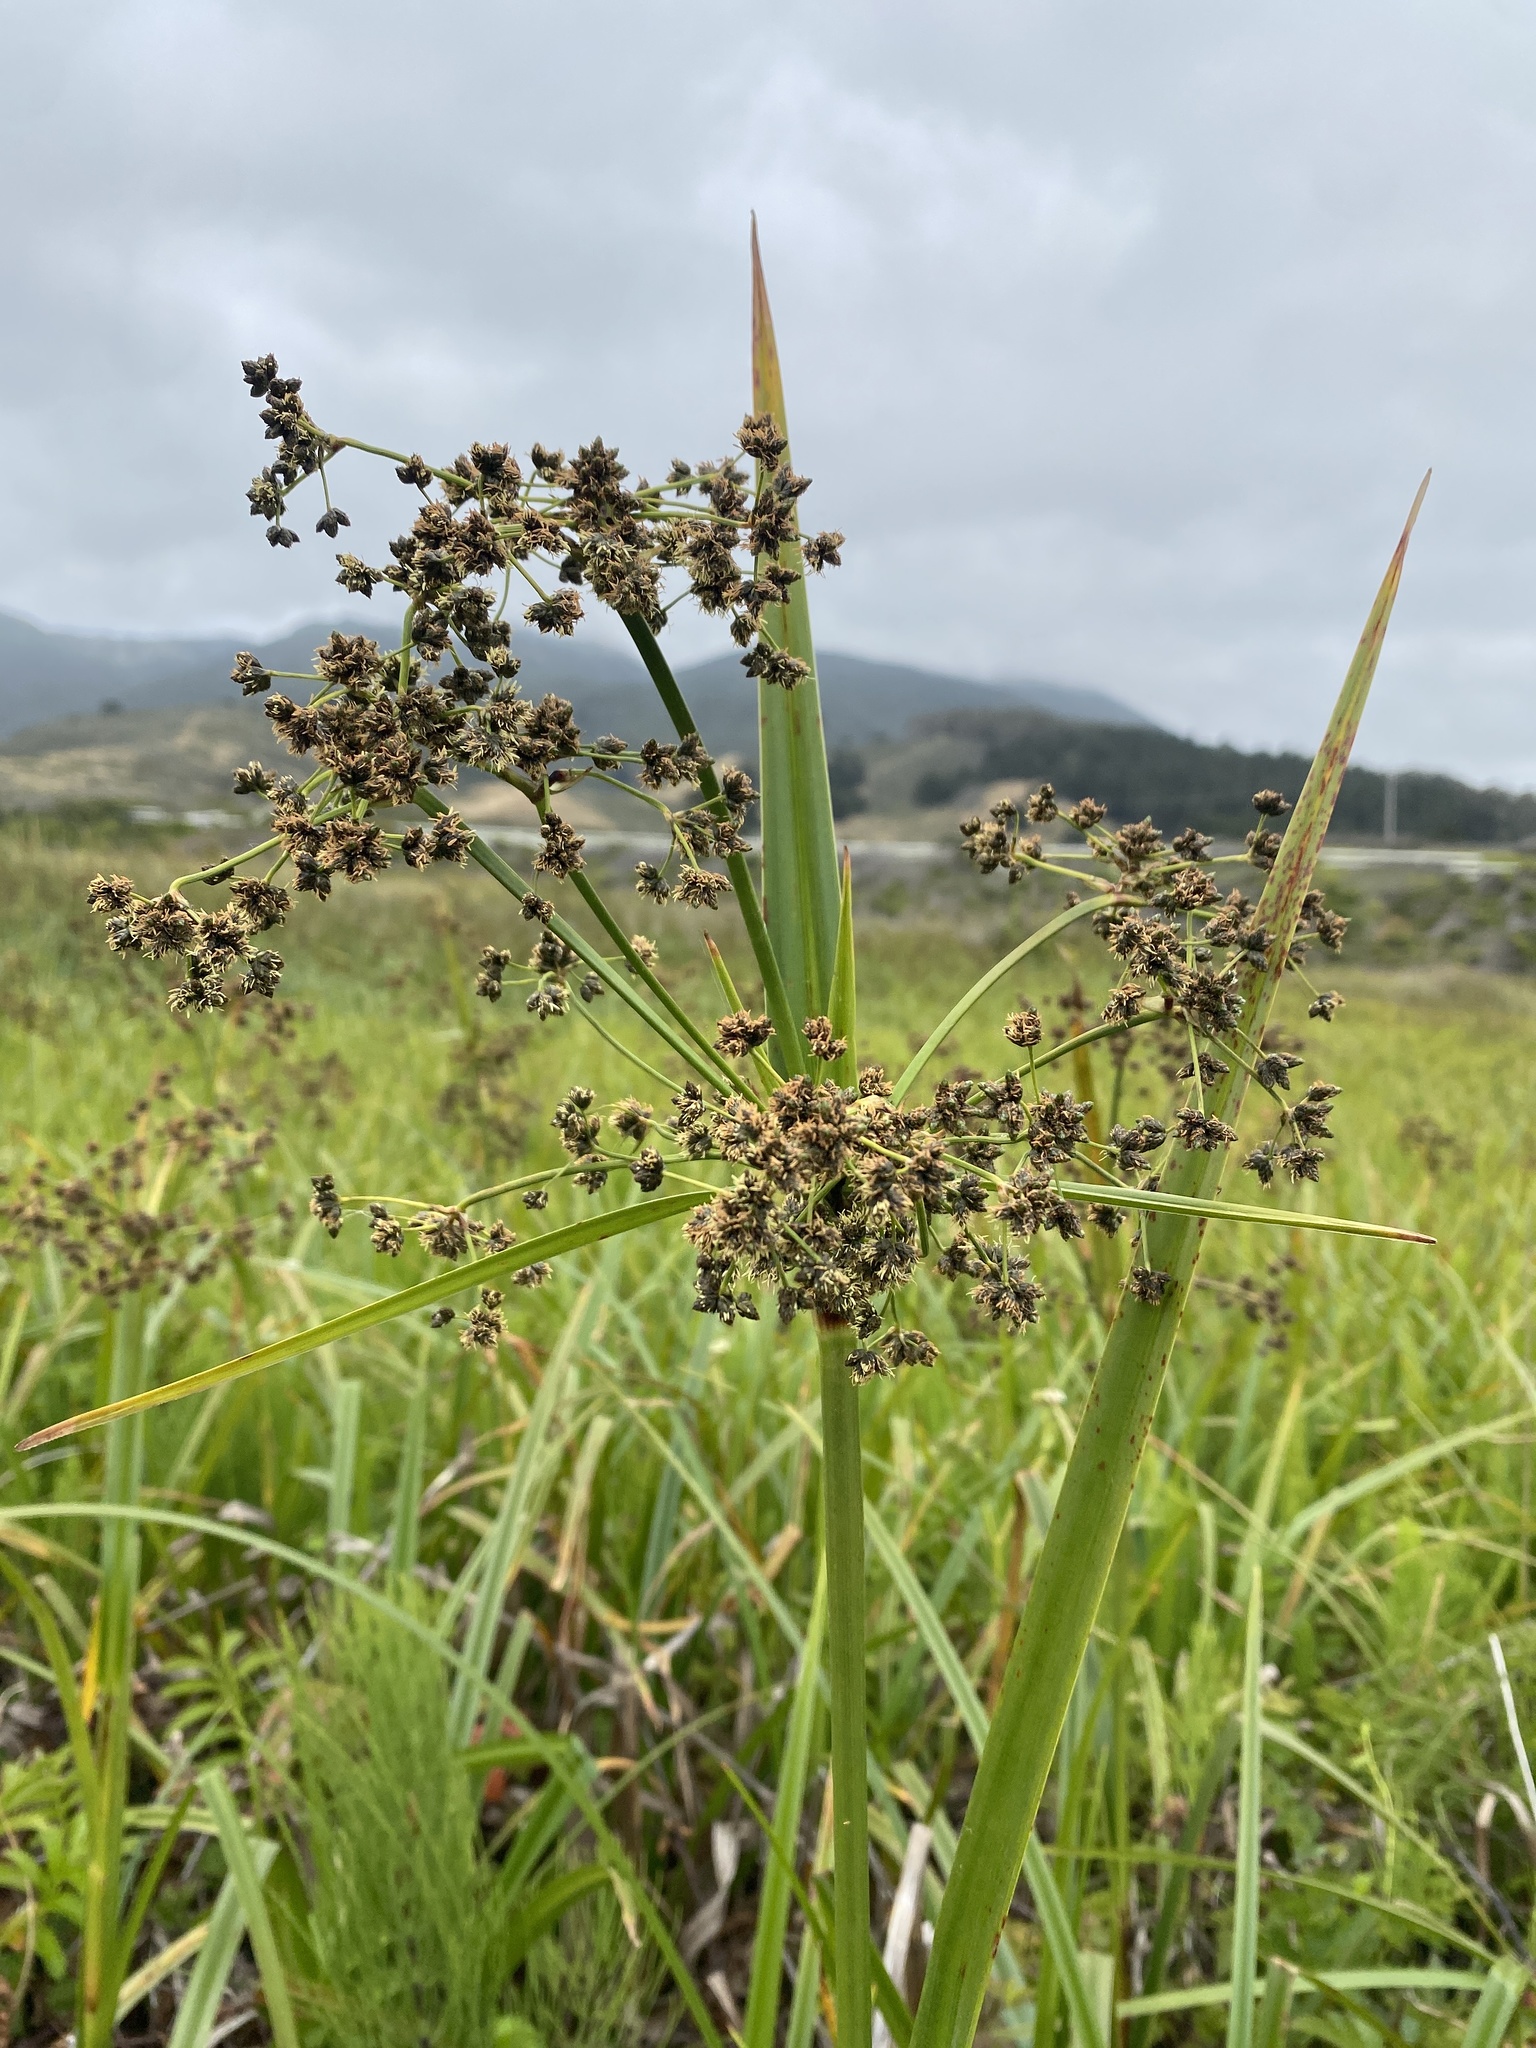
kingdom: Plantae
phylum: Tracheophyta
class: Liliopsida
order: Poales
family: Cyperaceae
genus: Scirpus
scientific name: Scirpus microcarpus
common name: Panicled bulrush
